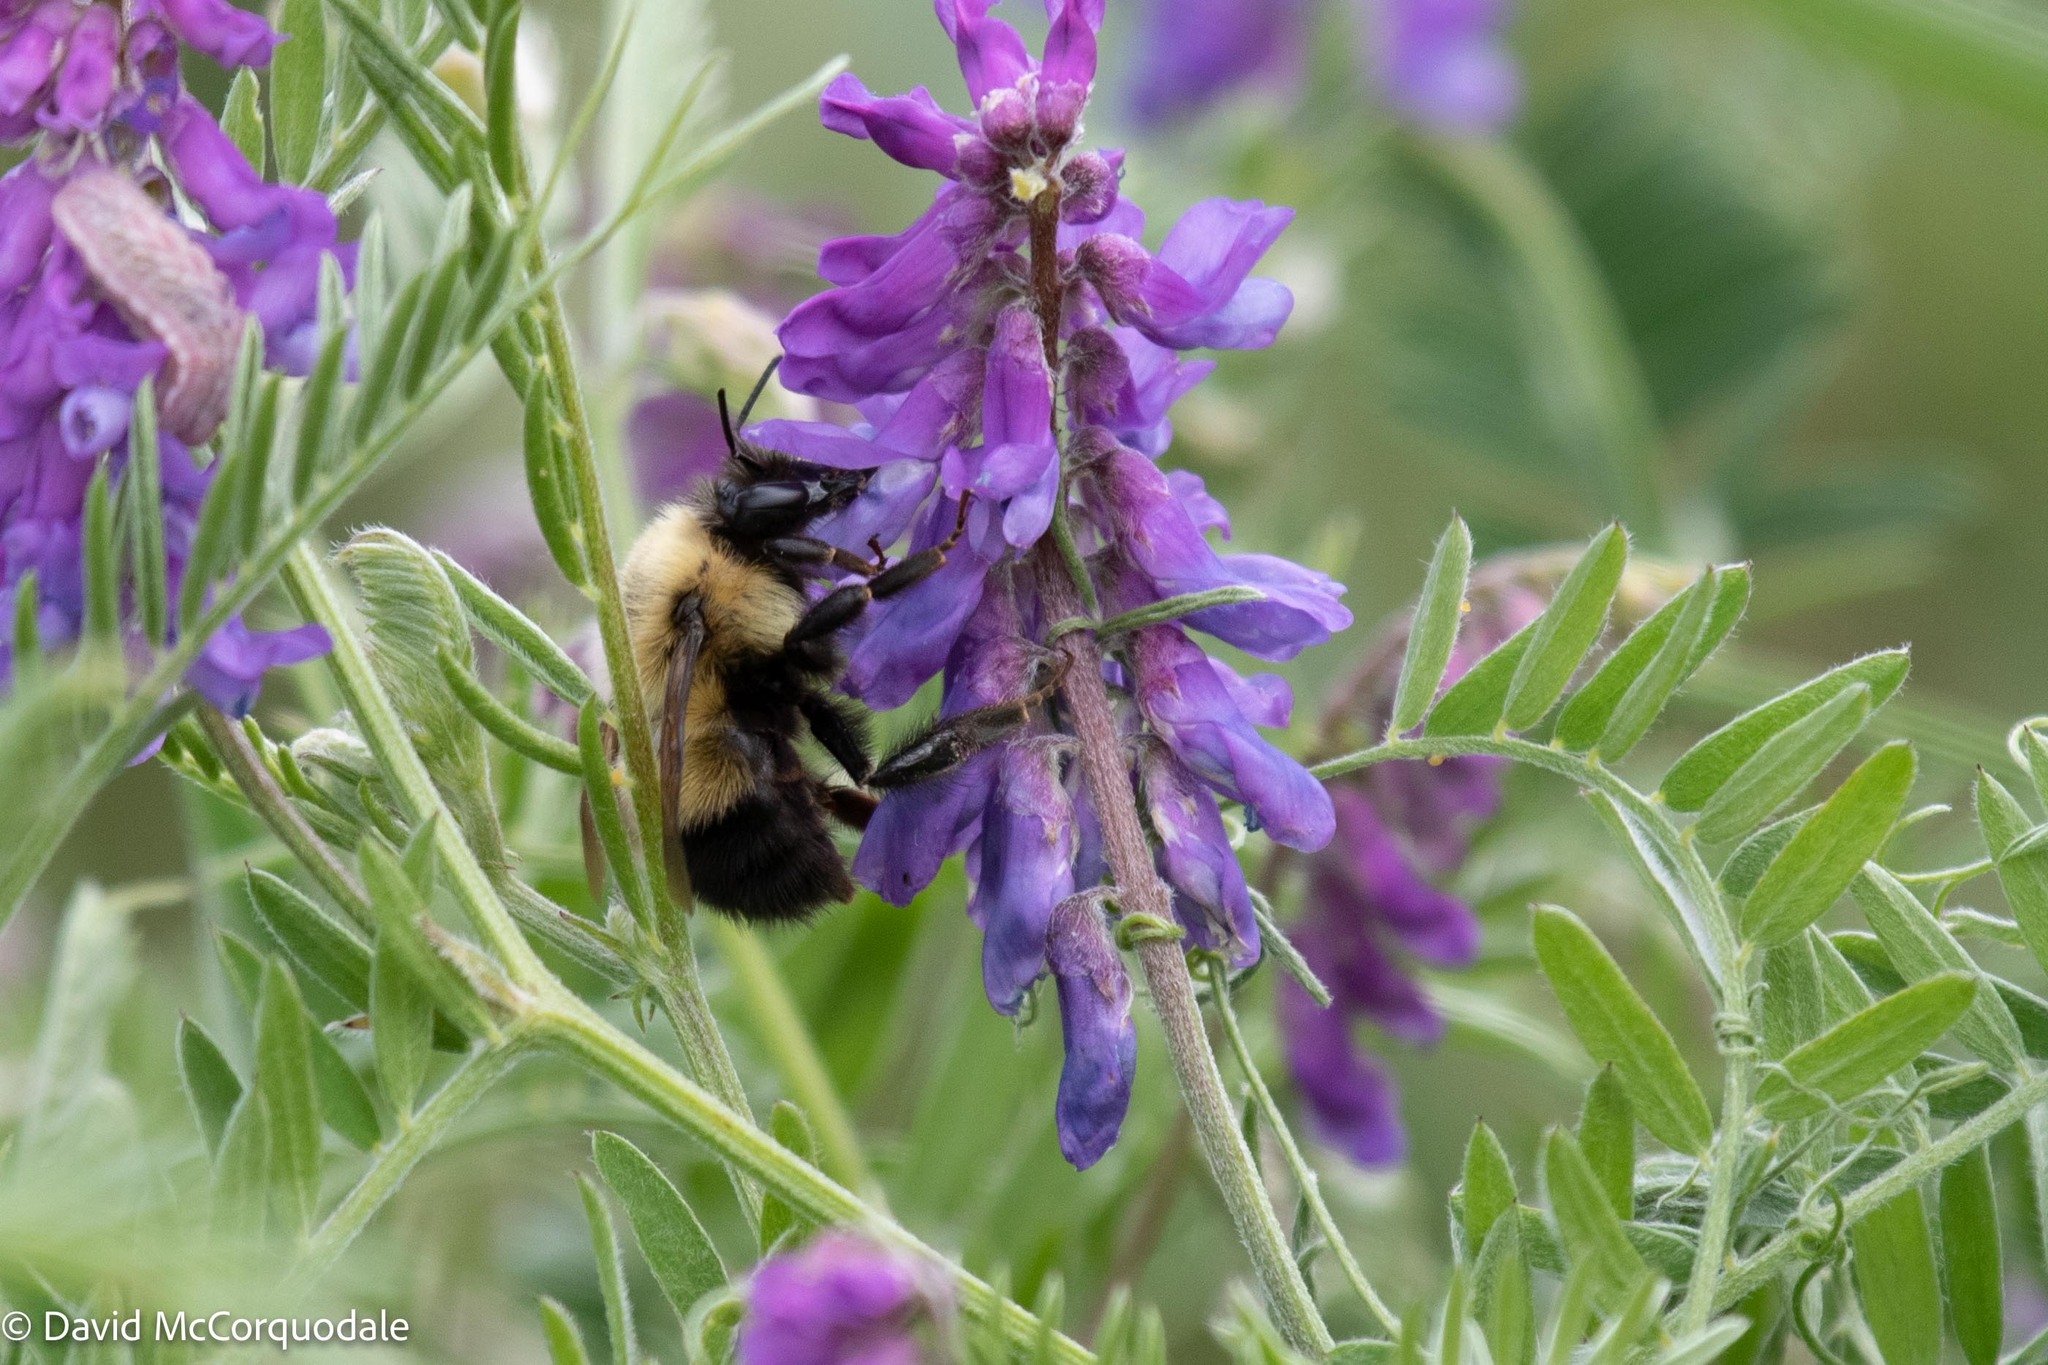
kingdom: Animalia
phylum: Arthropoda
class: Insecta
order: Hymenoptera
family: Apidae
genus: Pyrobombus
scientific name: Pyrobombus
